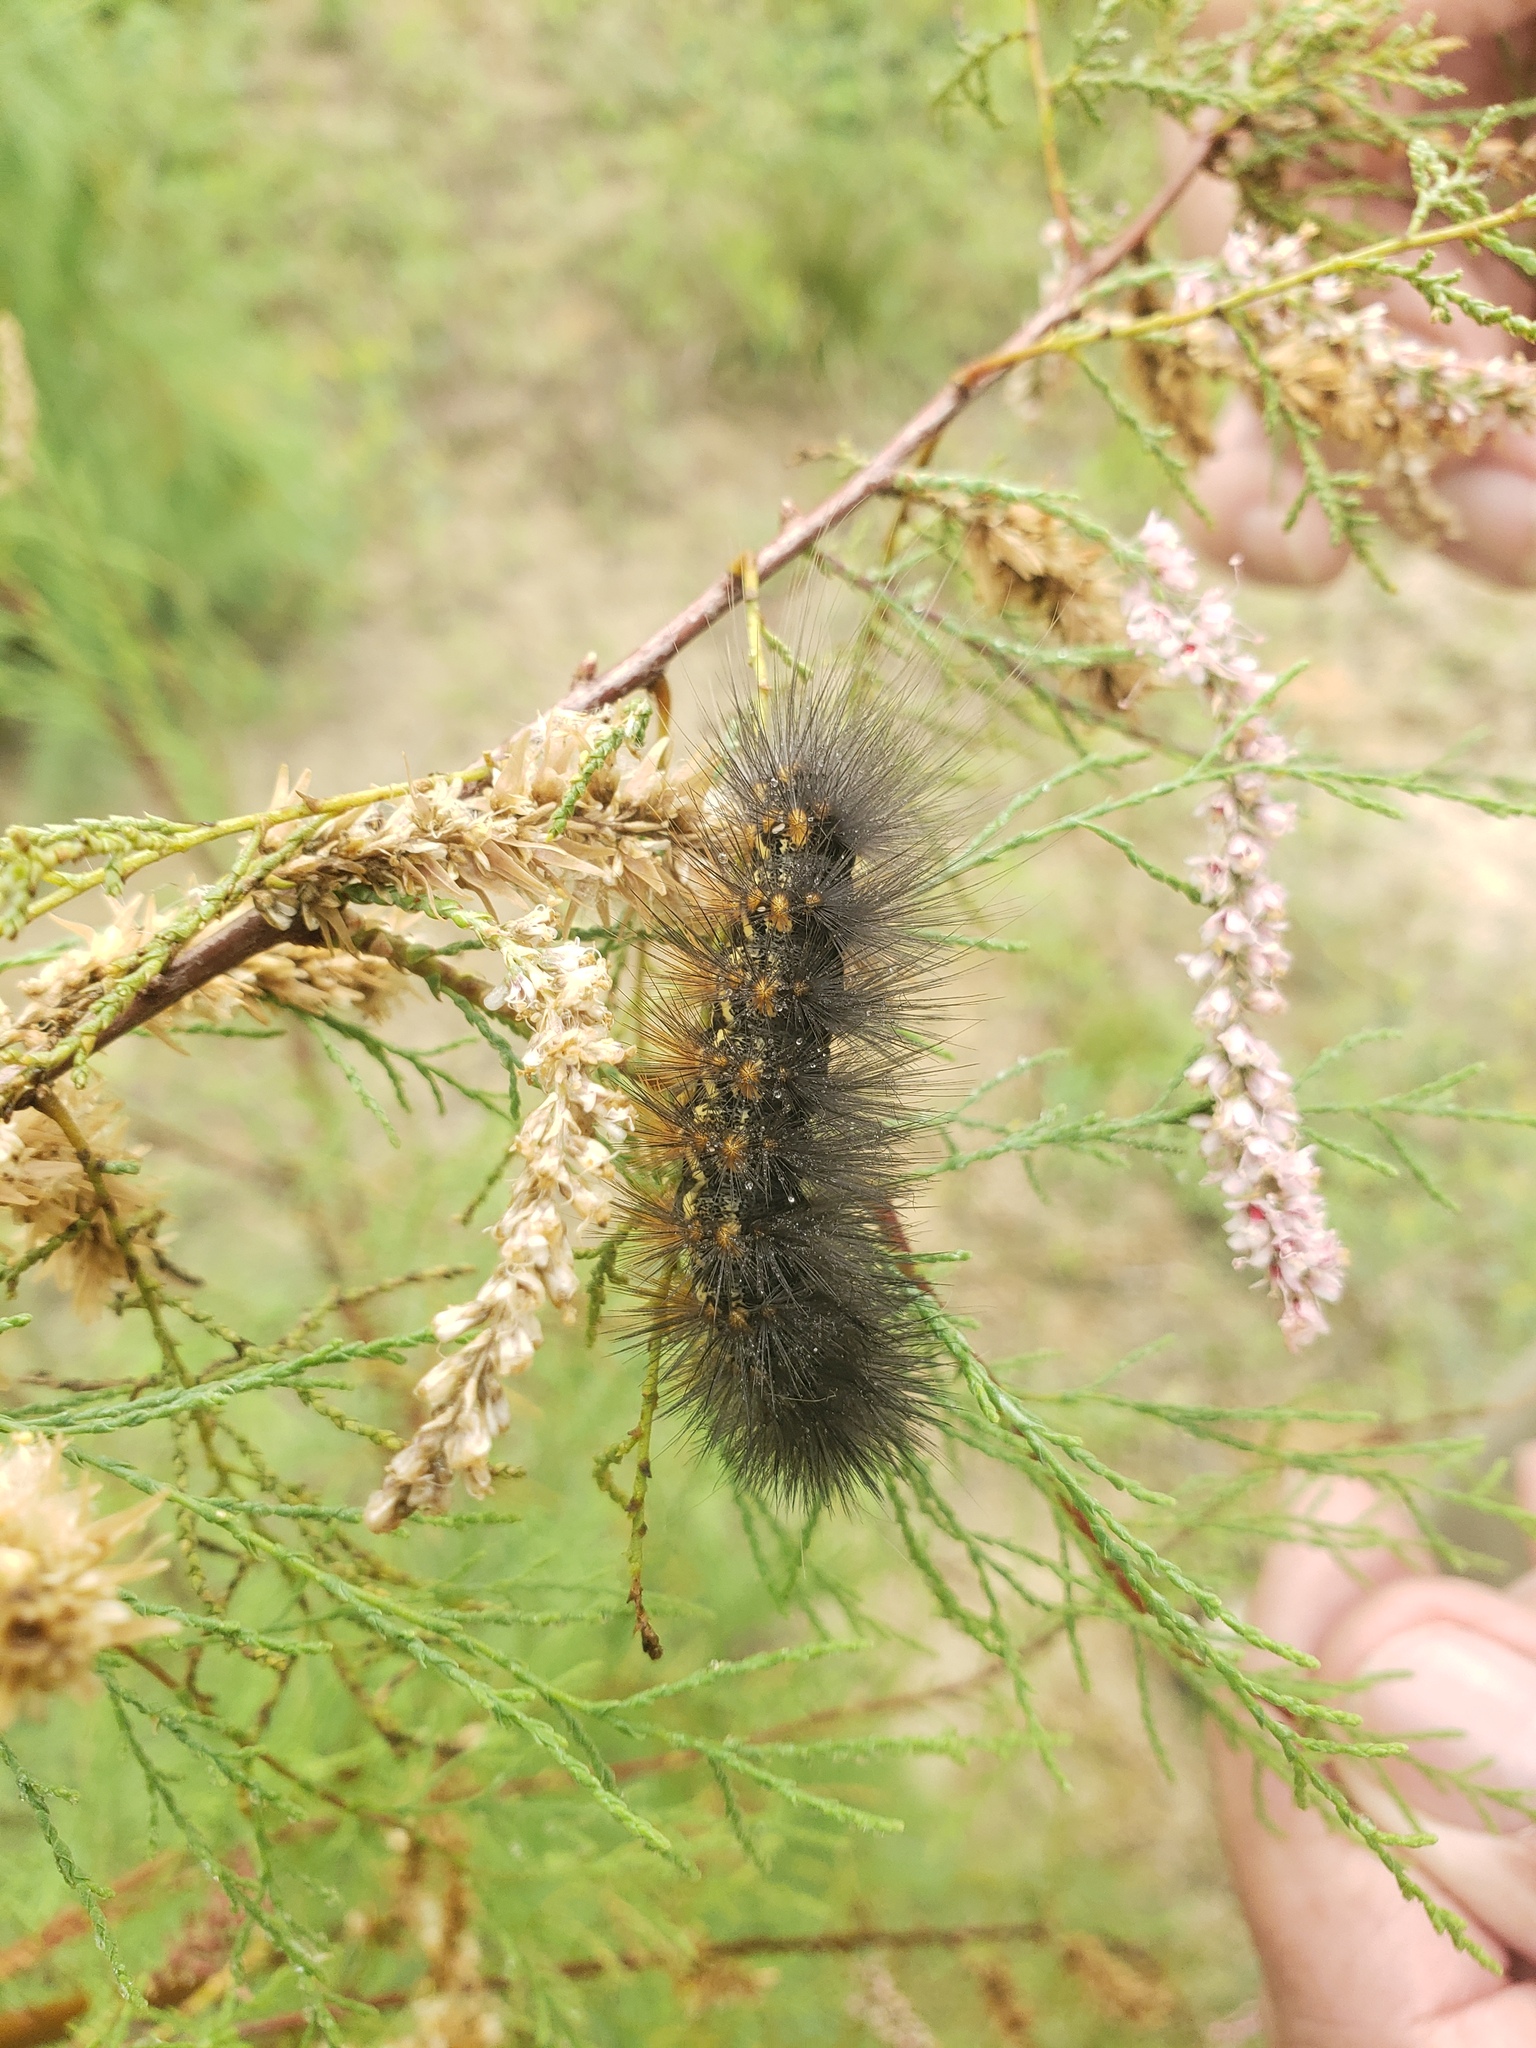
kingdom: Animalia
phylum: Arthropoda
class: Insecta
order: Lepidoptera
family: Erebidae
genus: Estigmene
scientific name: Estigmene acrea
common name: Salt marsh moth
